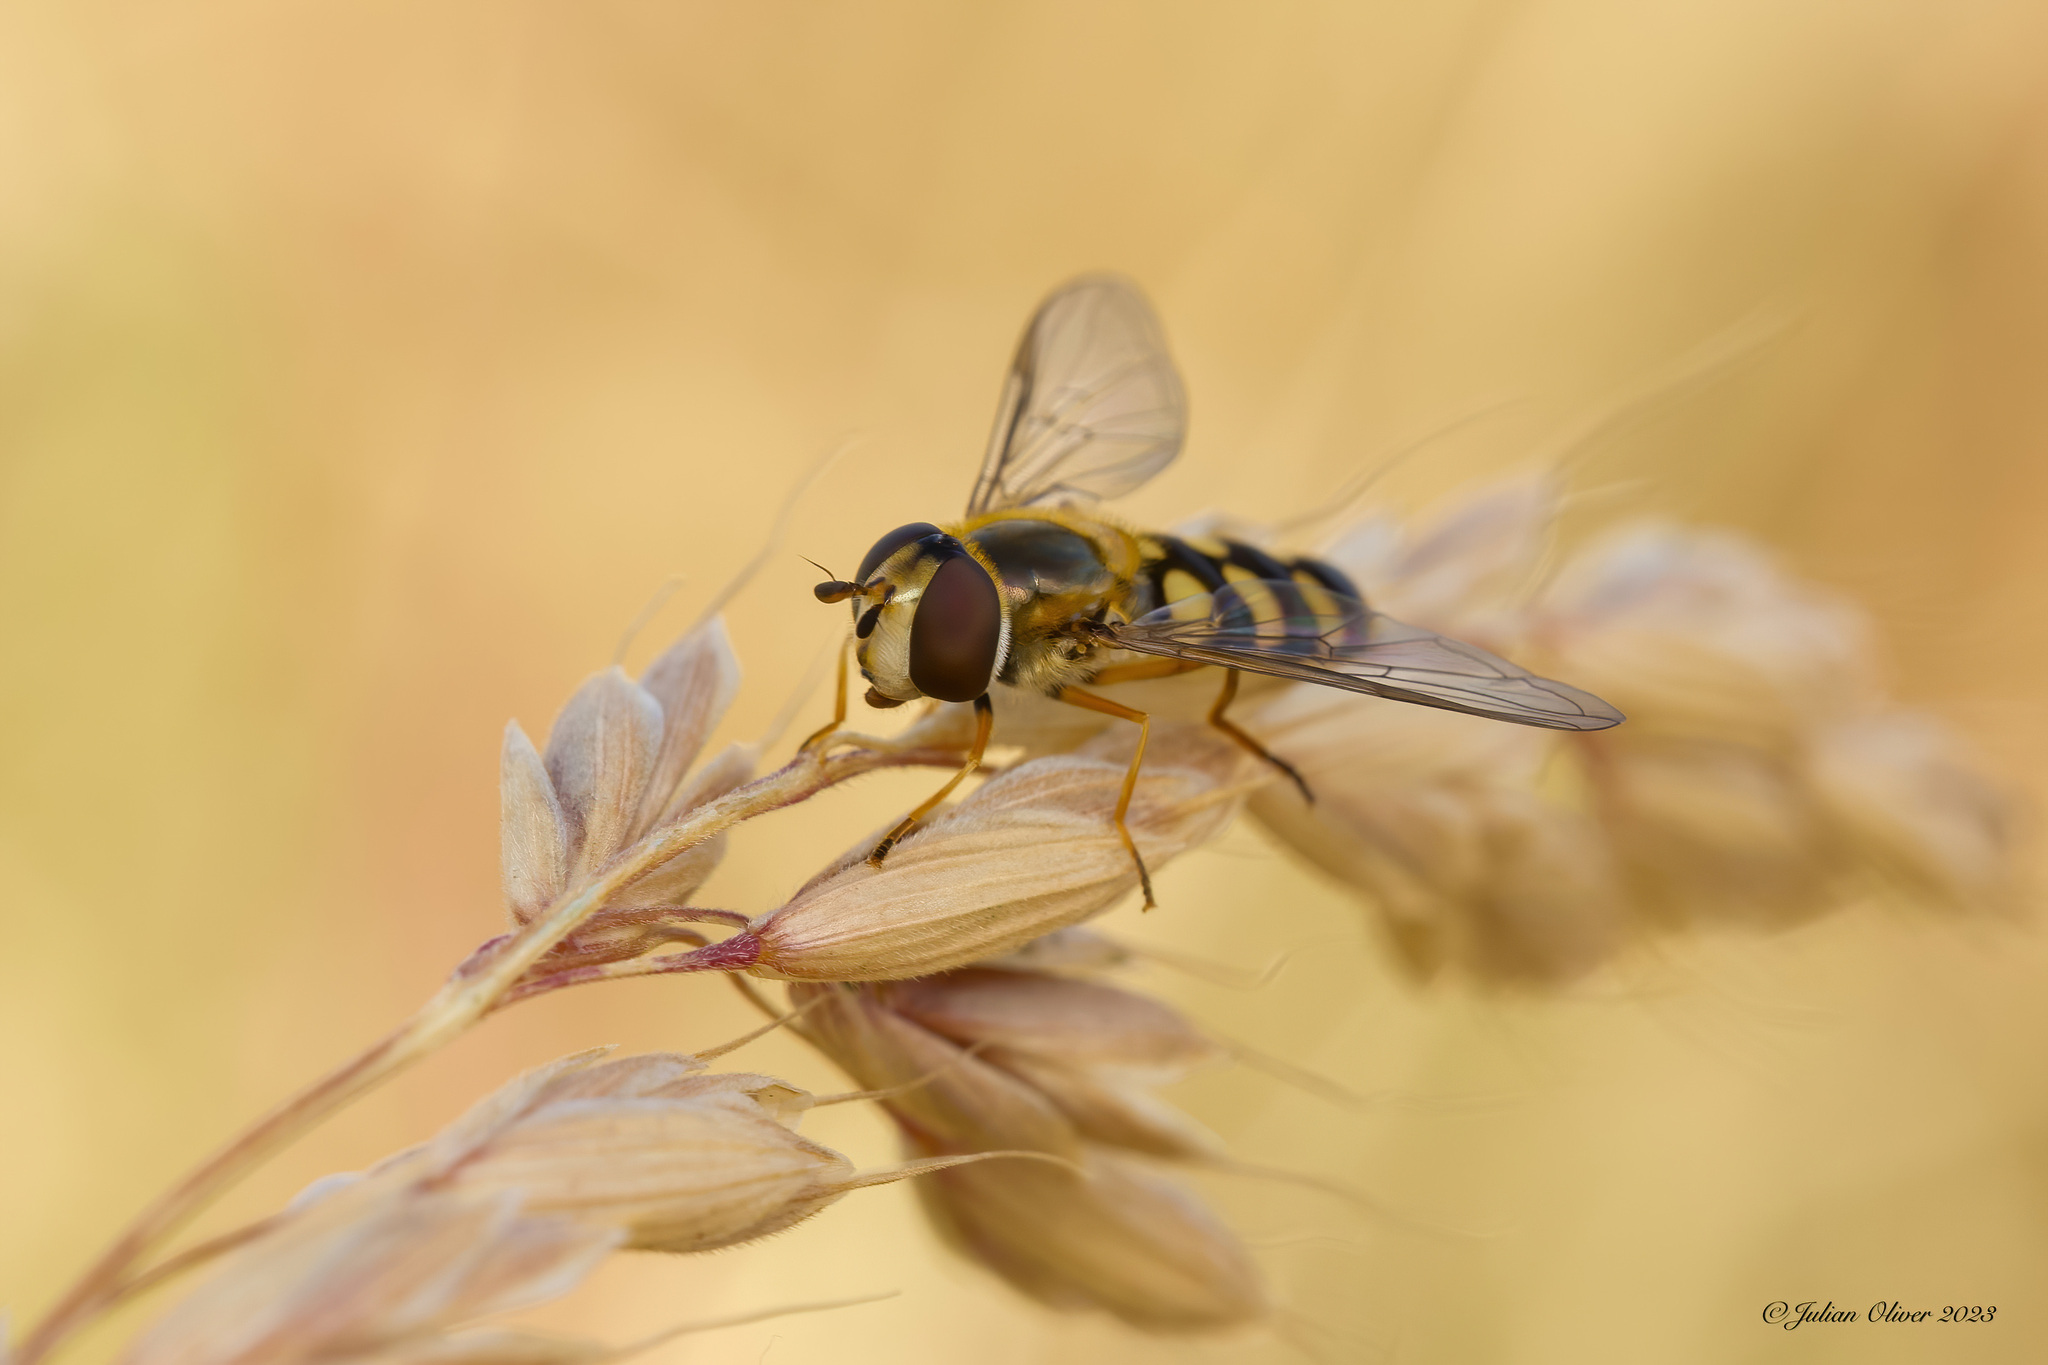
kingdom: Animalia
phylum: Arthropoda
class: Insecta
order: Diptera
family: Syrphidae
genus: Eupeodes
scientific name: Eupeodes luniger
